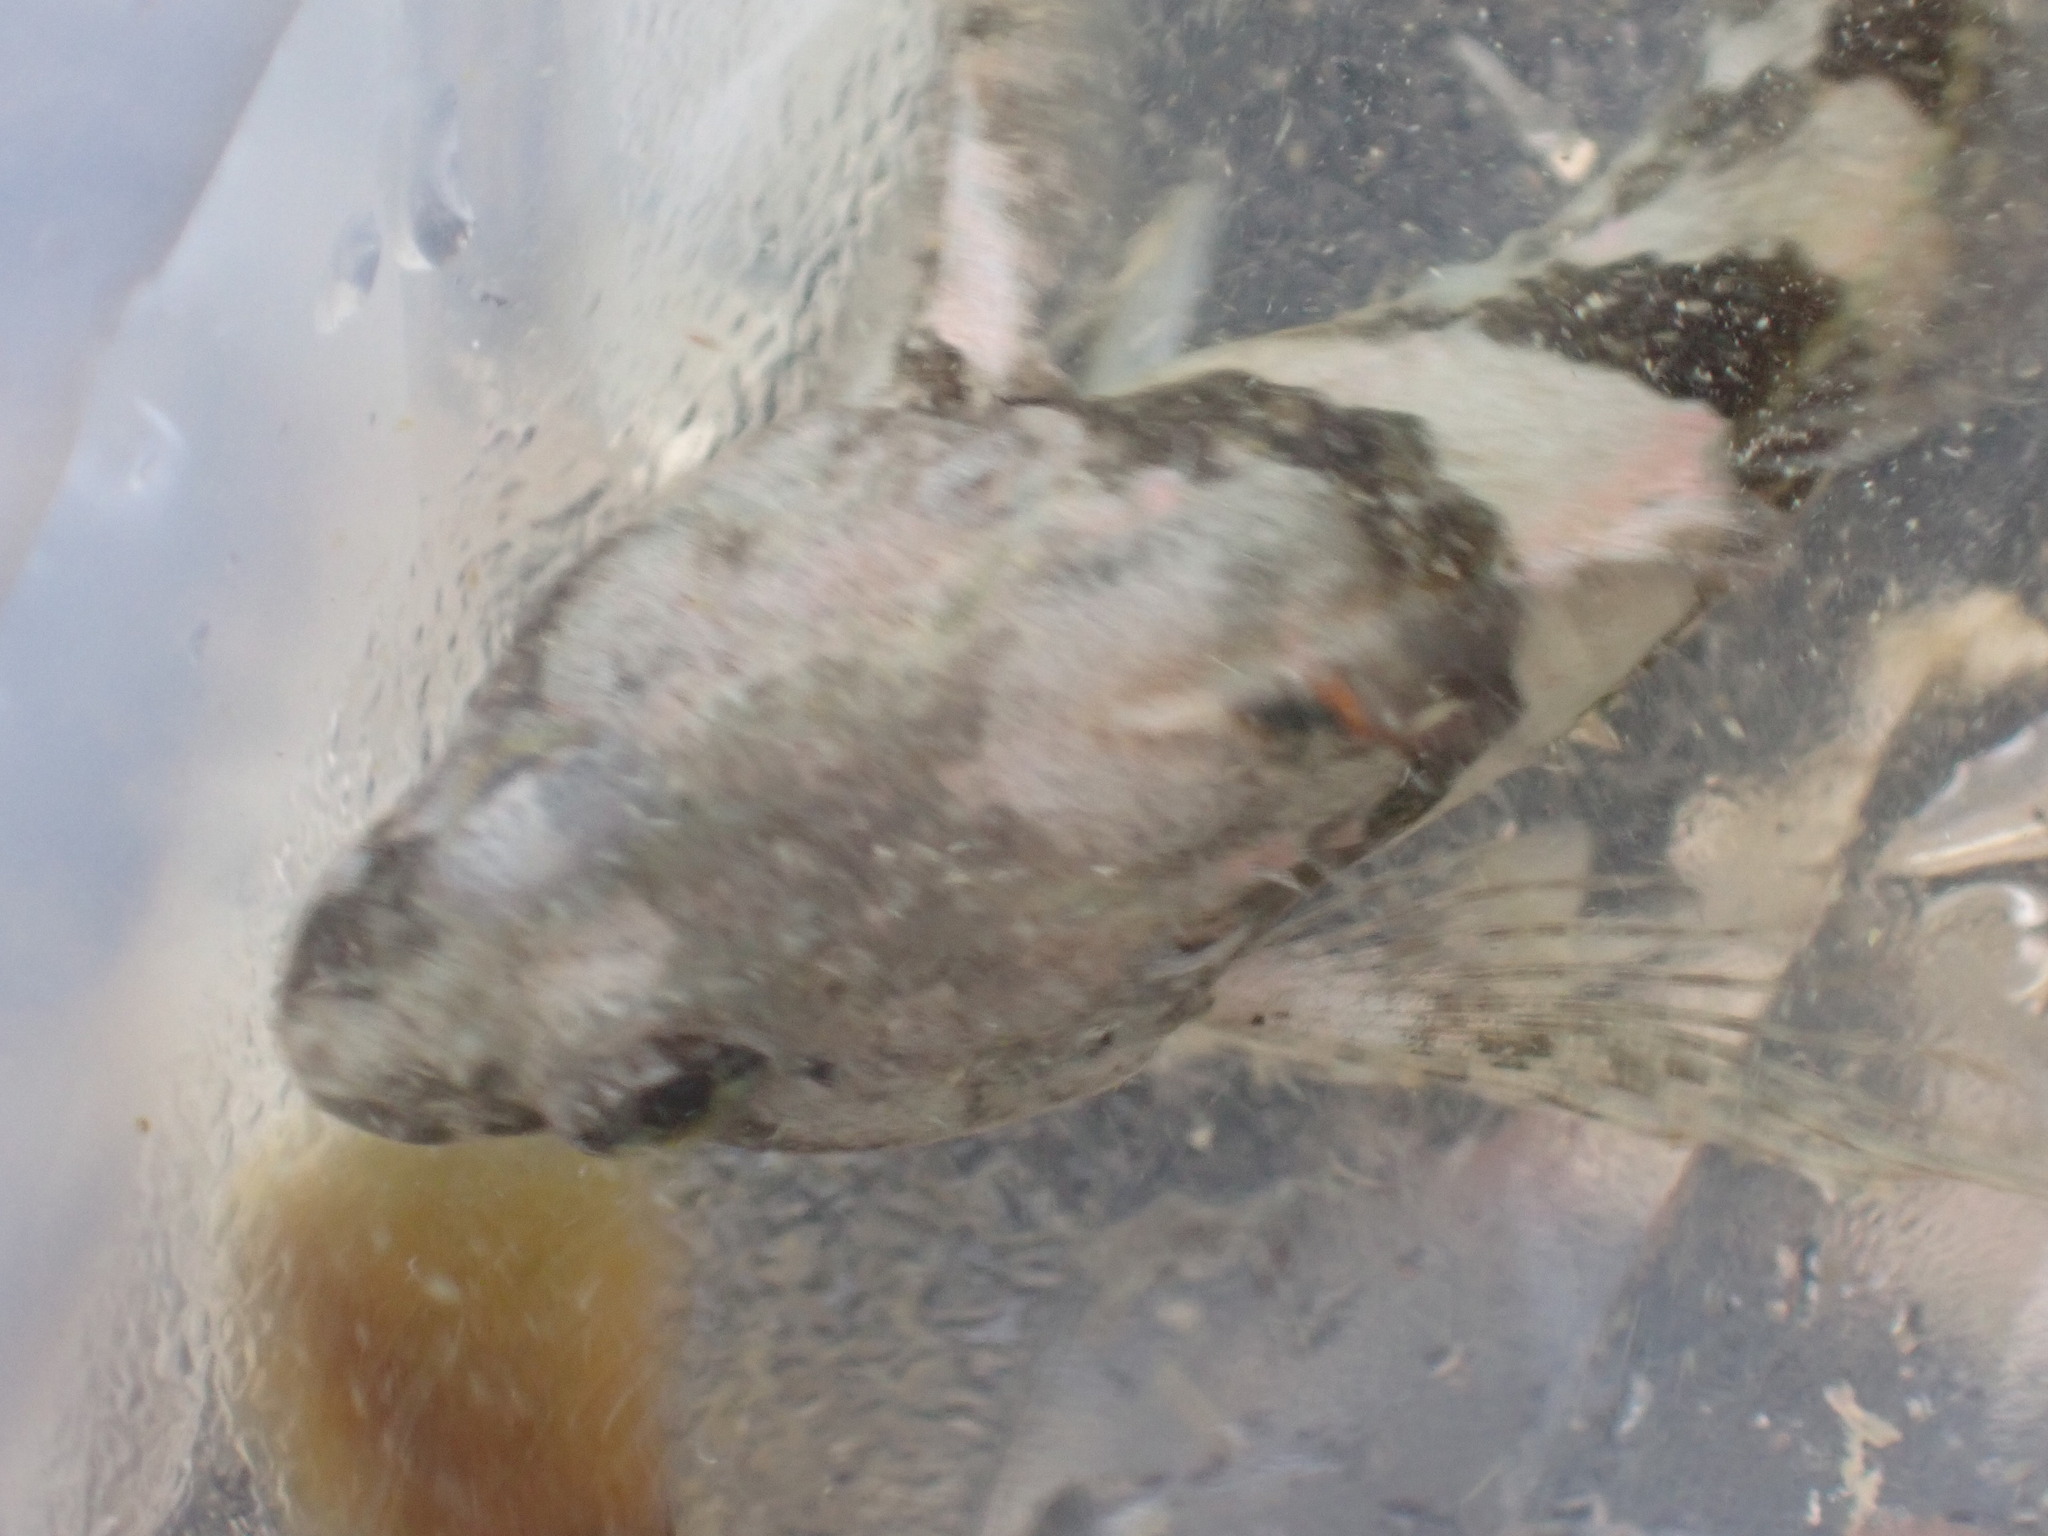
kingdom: Animalia
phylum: Chordata
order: Scorpaeniformes
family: Cottidae
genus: Oligocottus
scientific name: Oligocottus maculosus
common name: Tidepool sculpin
